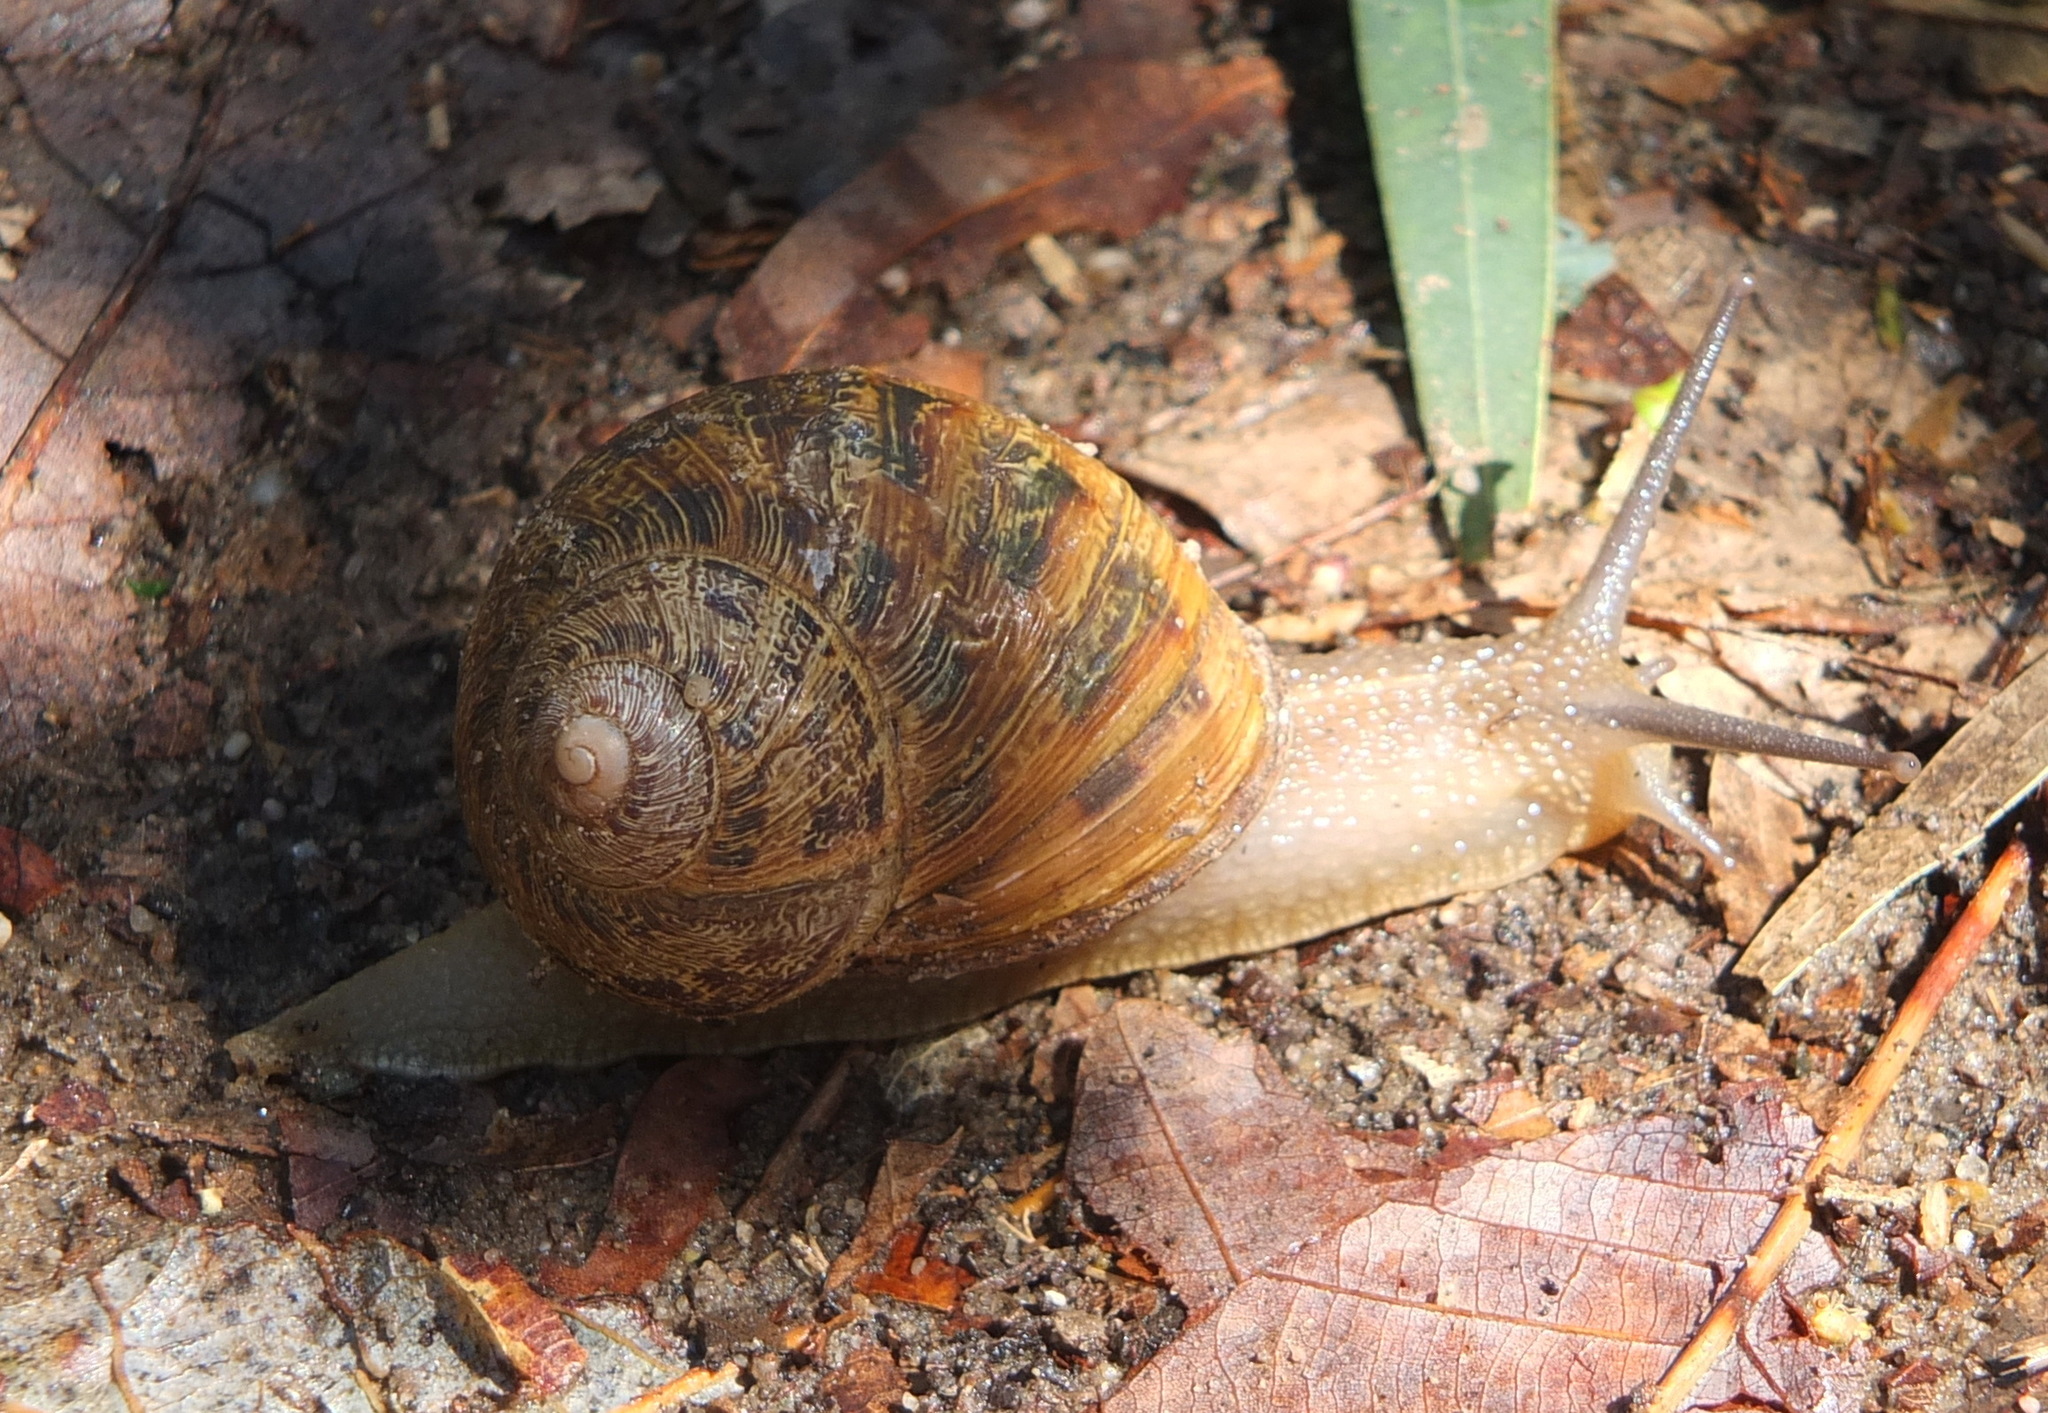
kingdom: Animalia
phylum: Mollusca
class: Gastropoda
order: Stylommatophora
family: Helicidae
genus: Cornu
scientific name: Cornu aspersum
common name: Brown garden snail
